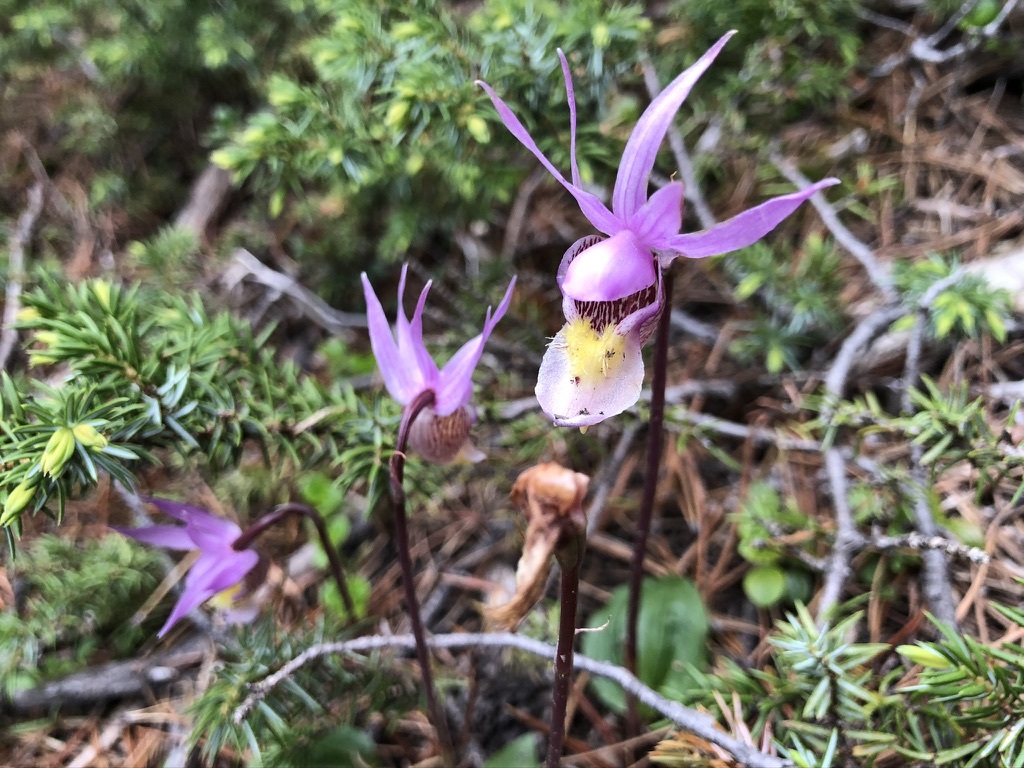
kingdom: Plantae
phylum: Tracheophyta
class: Liliopsida
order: Asparagales
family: Orchidaceae
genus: Calypso
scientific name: Calypso bulbosa
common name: Calypso
